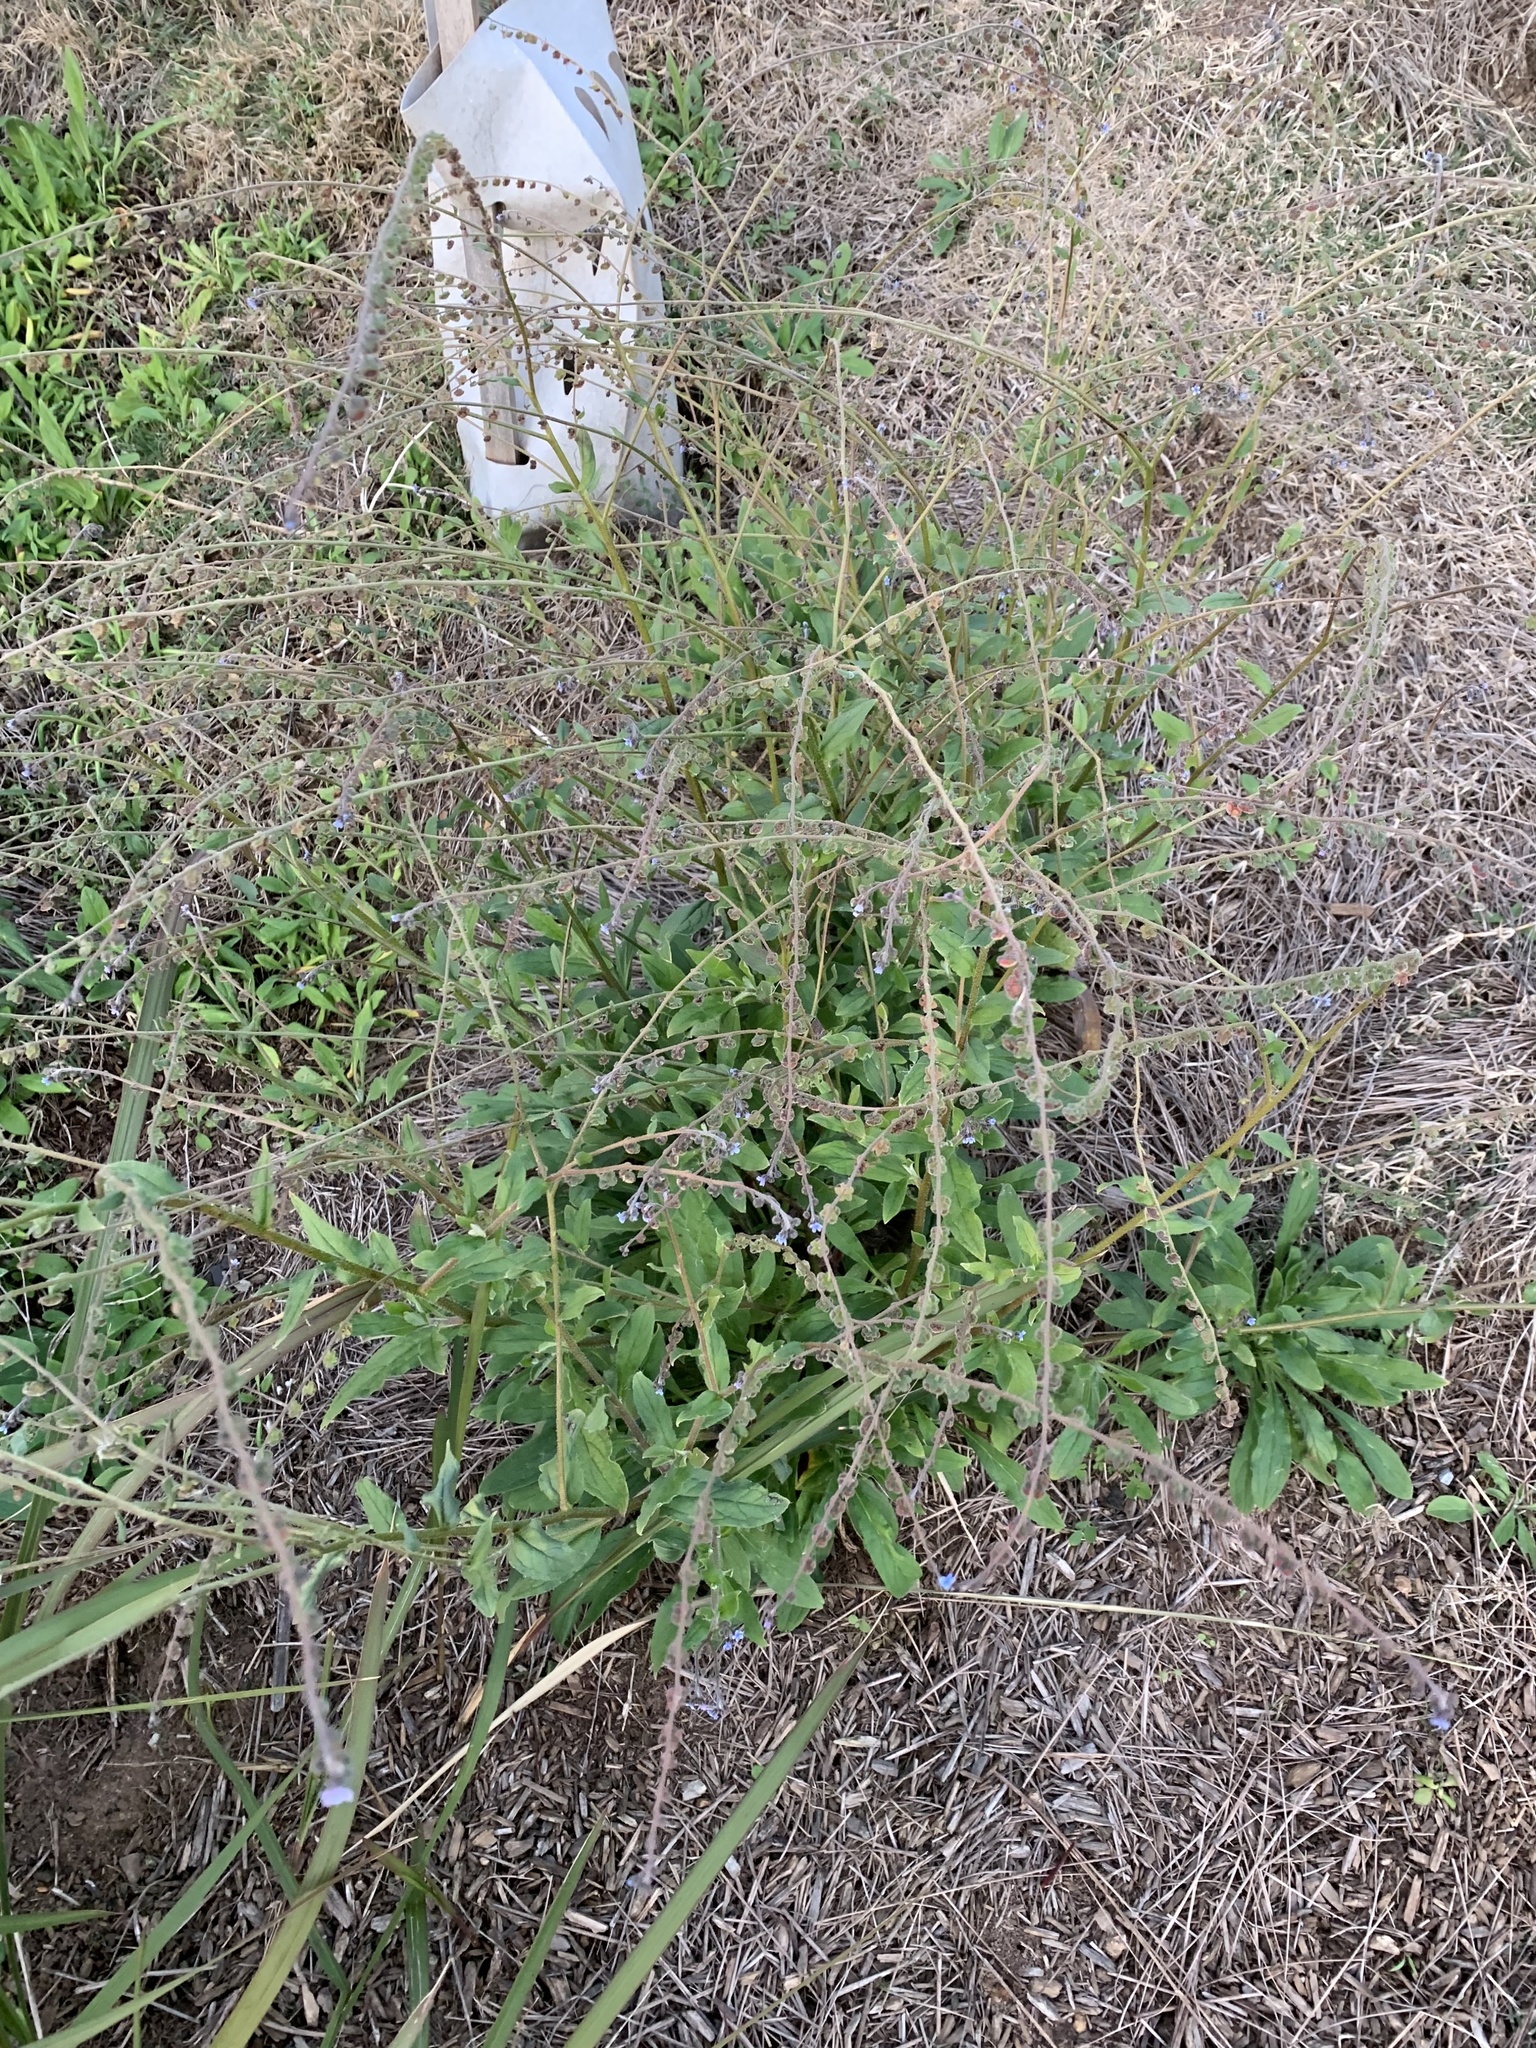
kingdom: Plantae
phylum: Tracheophyta
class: Magnoliopsida
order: Boraginales
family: Boraginaceae
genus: Cynoglossum
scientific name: Cynoglossum australe
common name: Australian hound's-tongue
